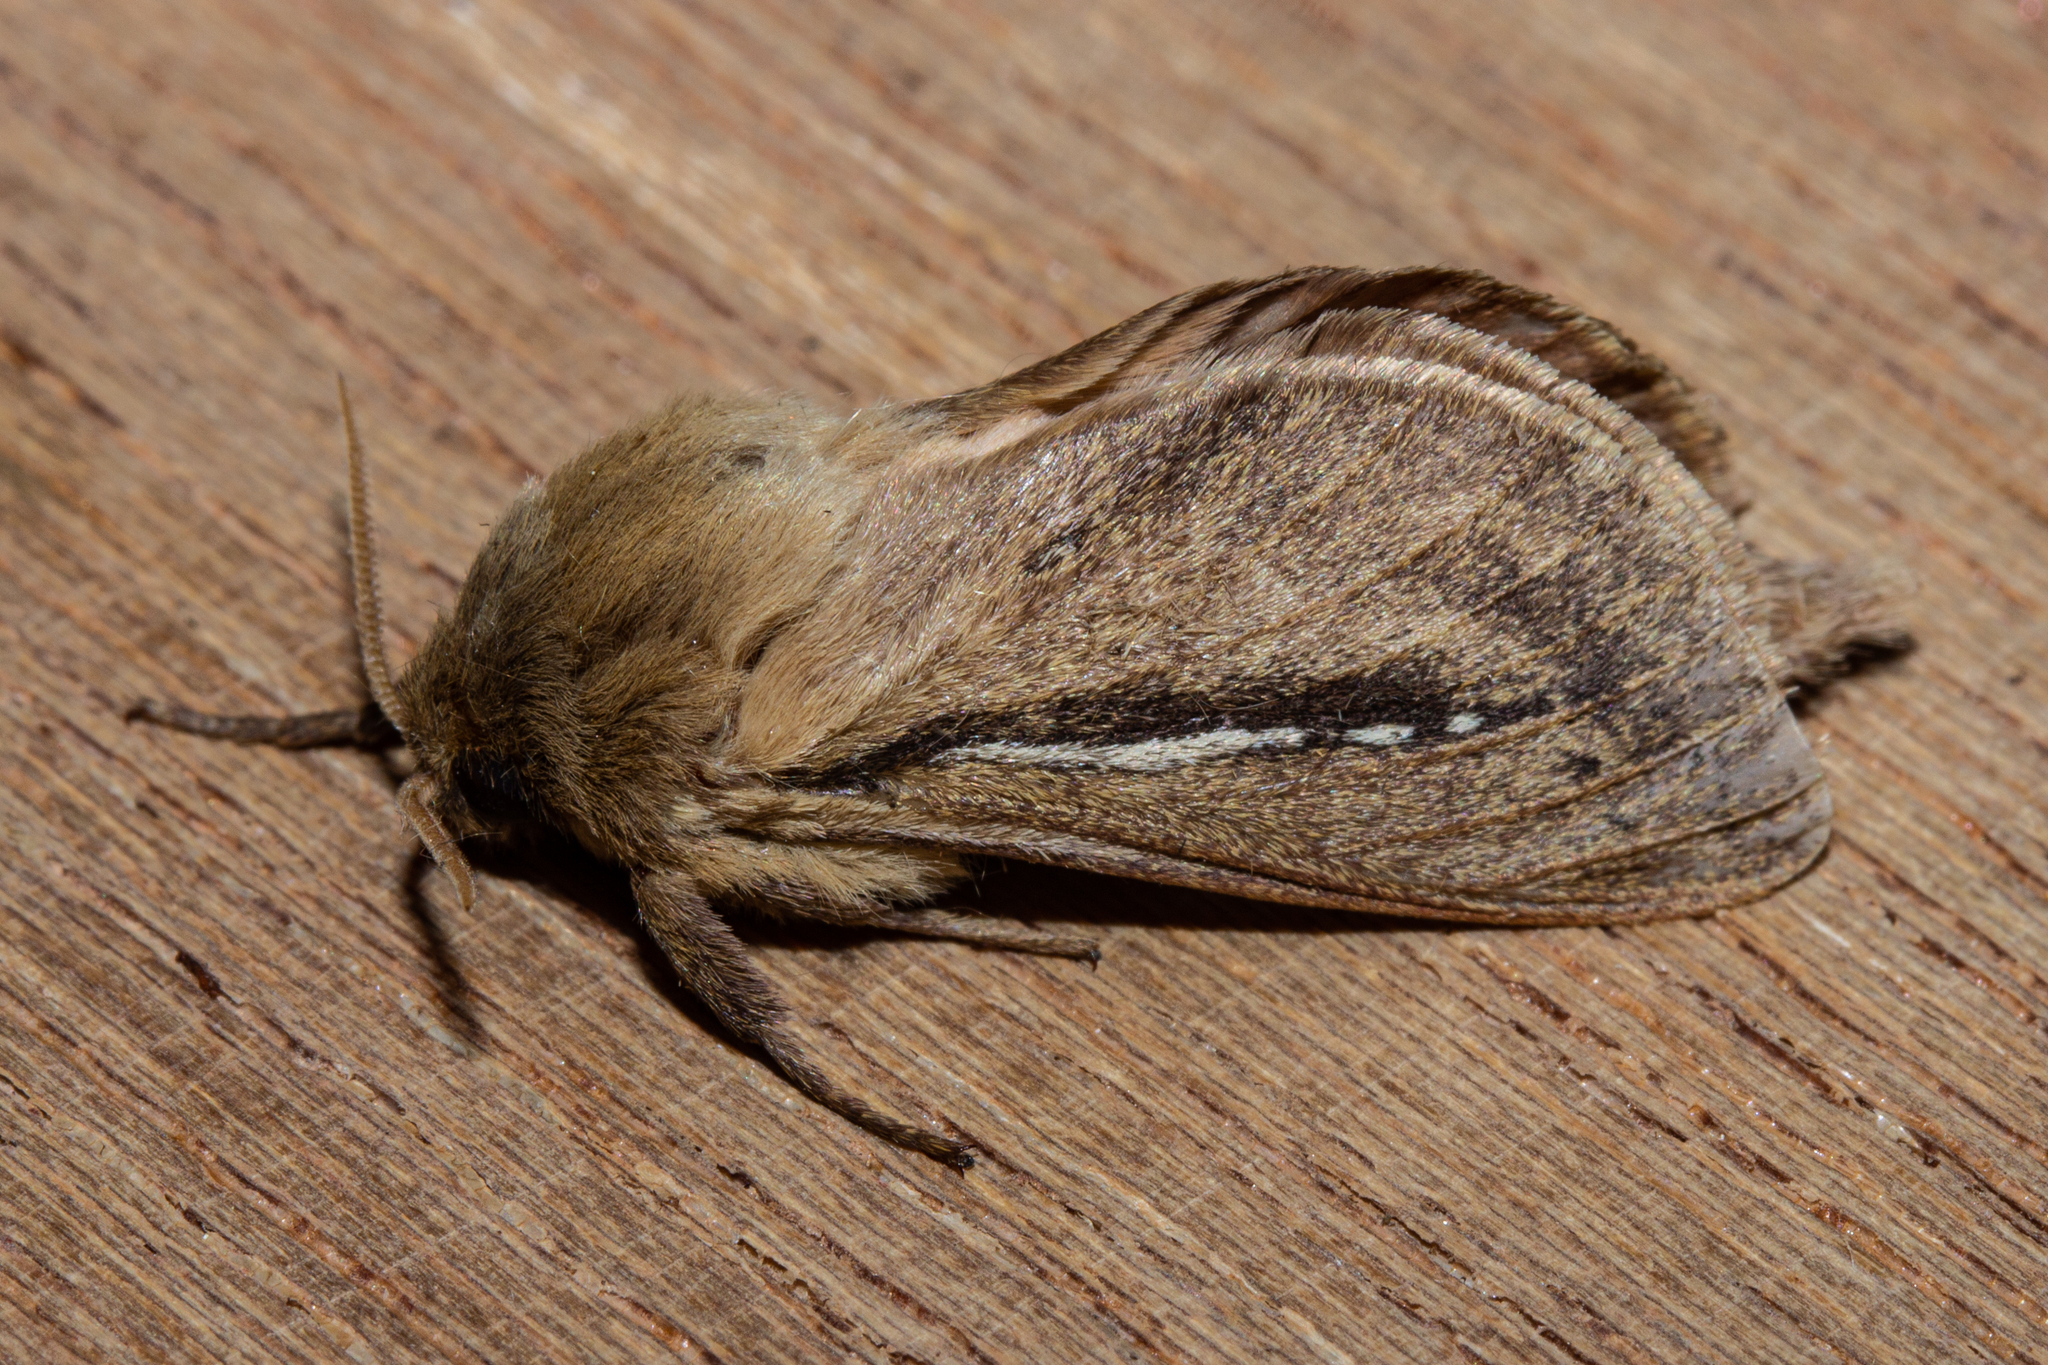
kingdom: Animalia
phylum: Arthropoda
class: Insecta
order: Lepidoptera
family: Hepialidae
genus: Wiseana
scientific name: Wiseana umbraculatus
